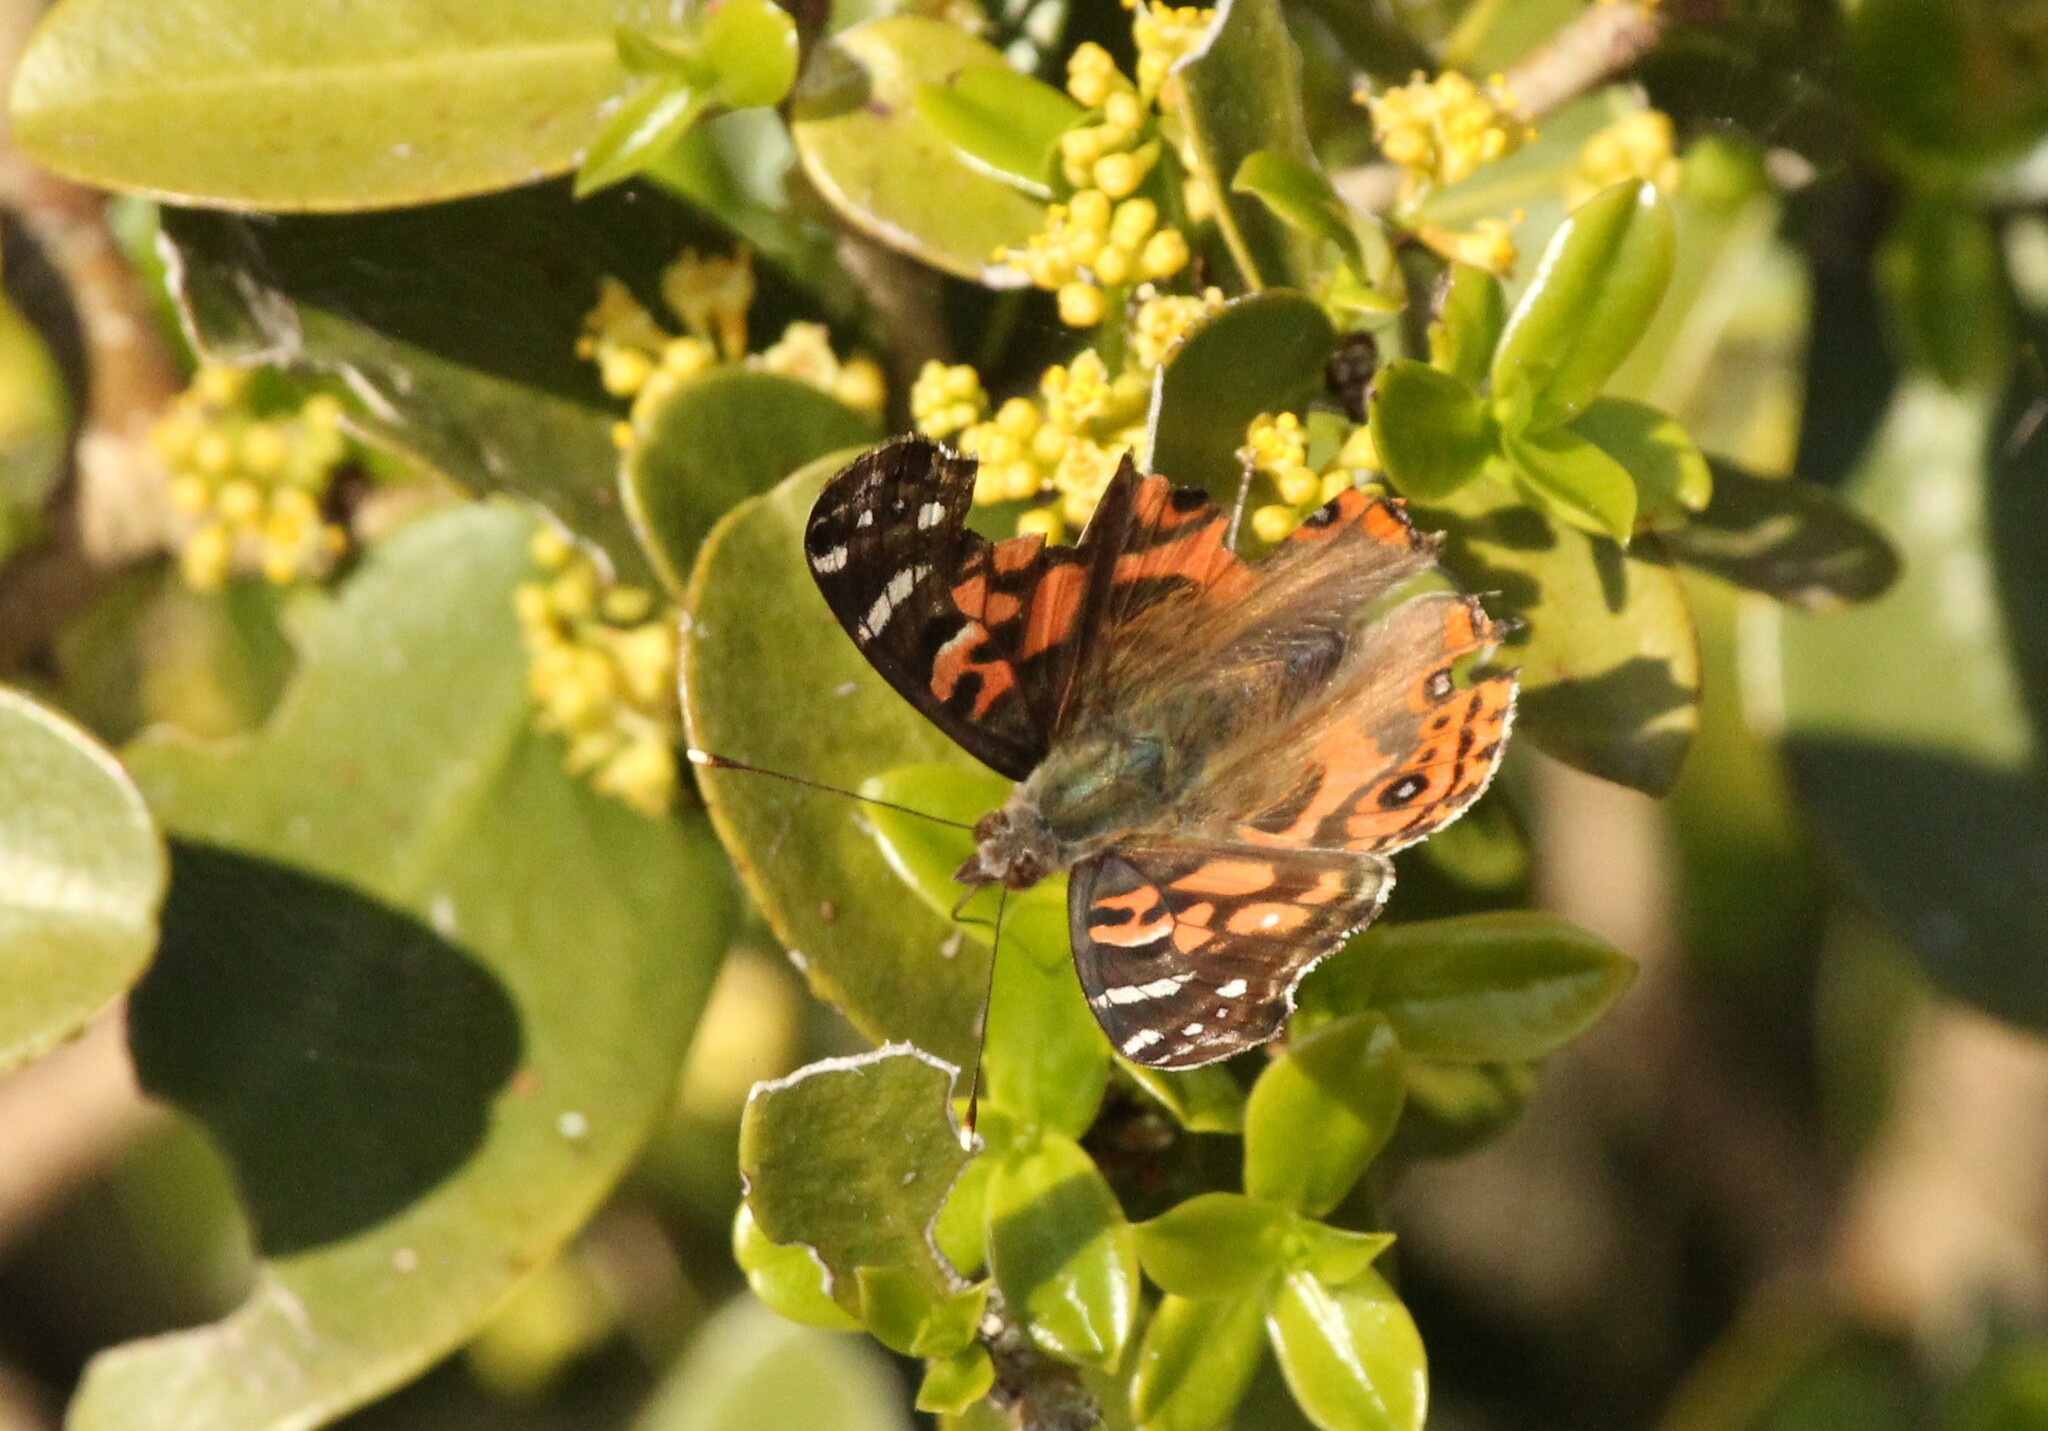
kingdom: Animalia
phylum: Arthropoda
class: Insecta
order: Lepidoptera
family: Nymphalidae
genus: Vanessa
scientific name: Vanessa braziliensis
